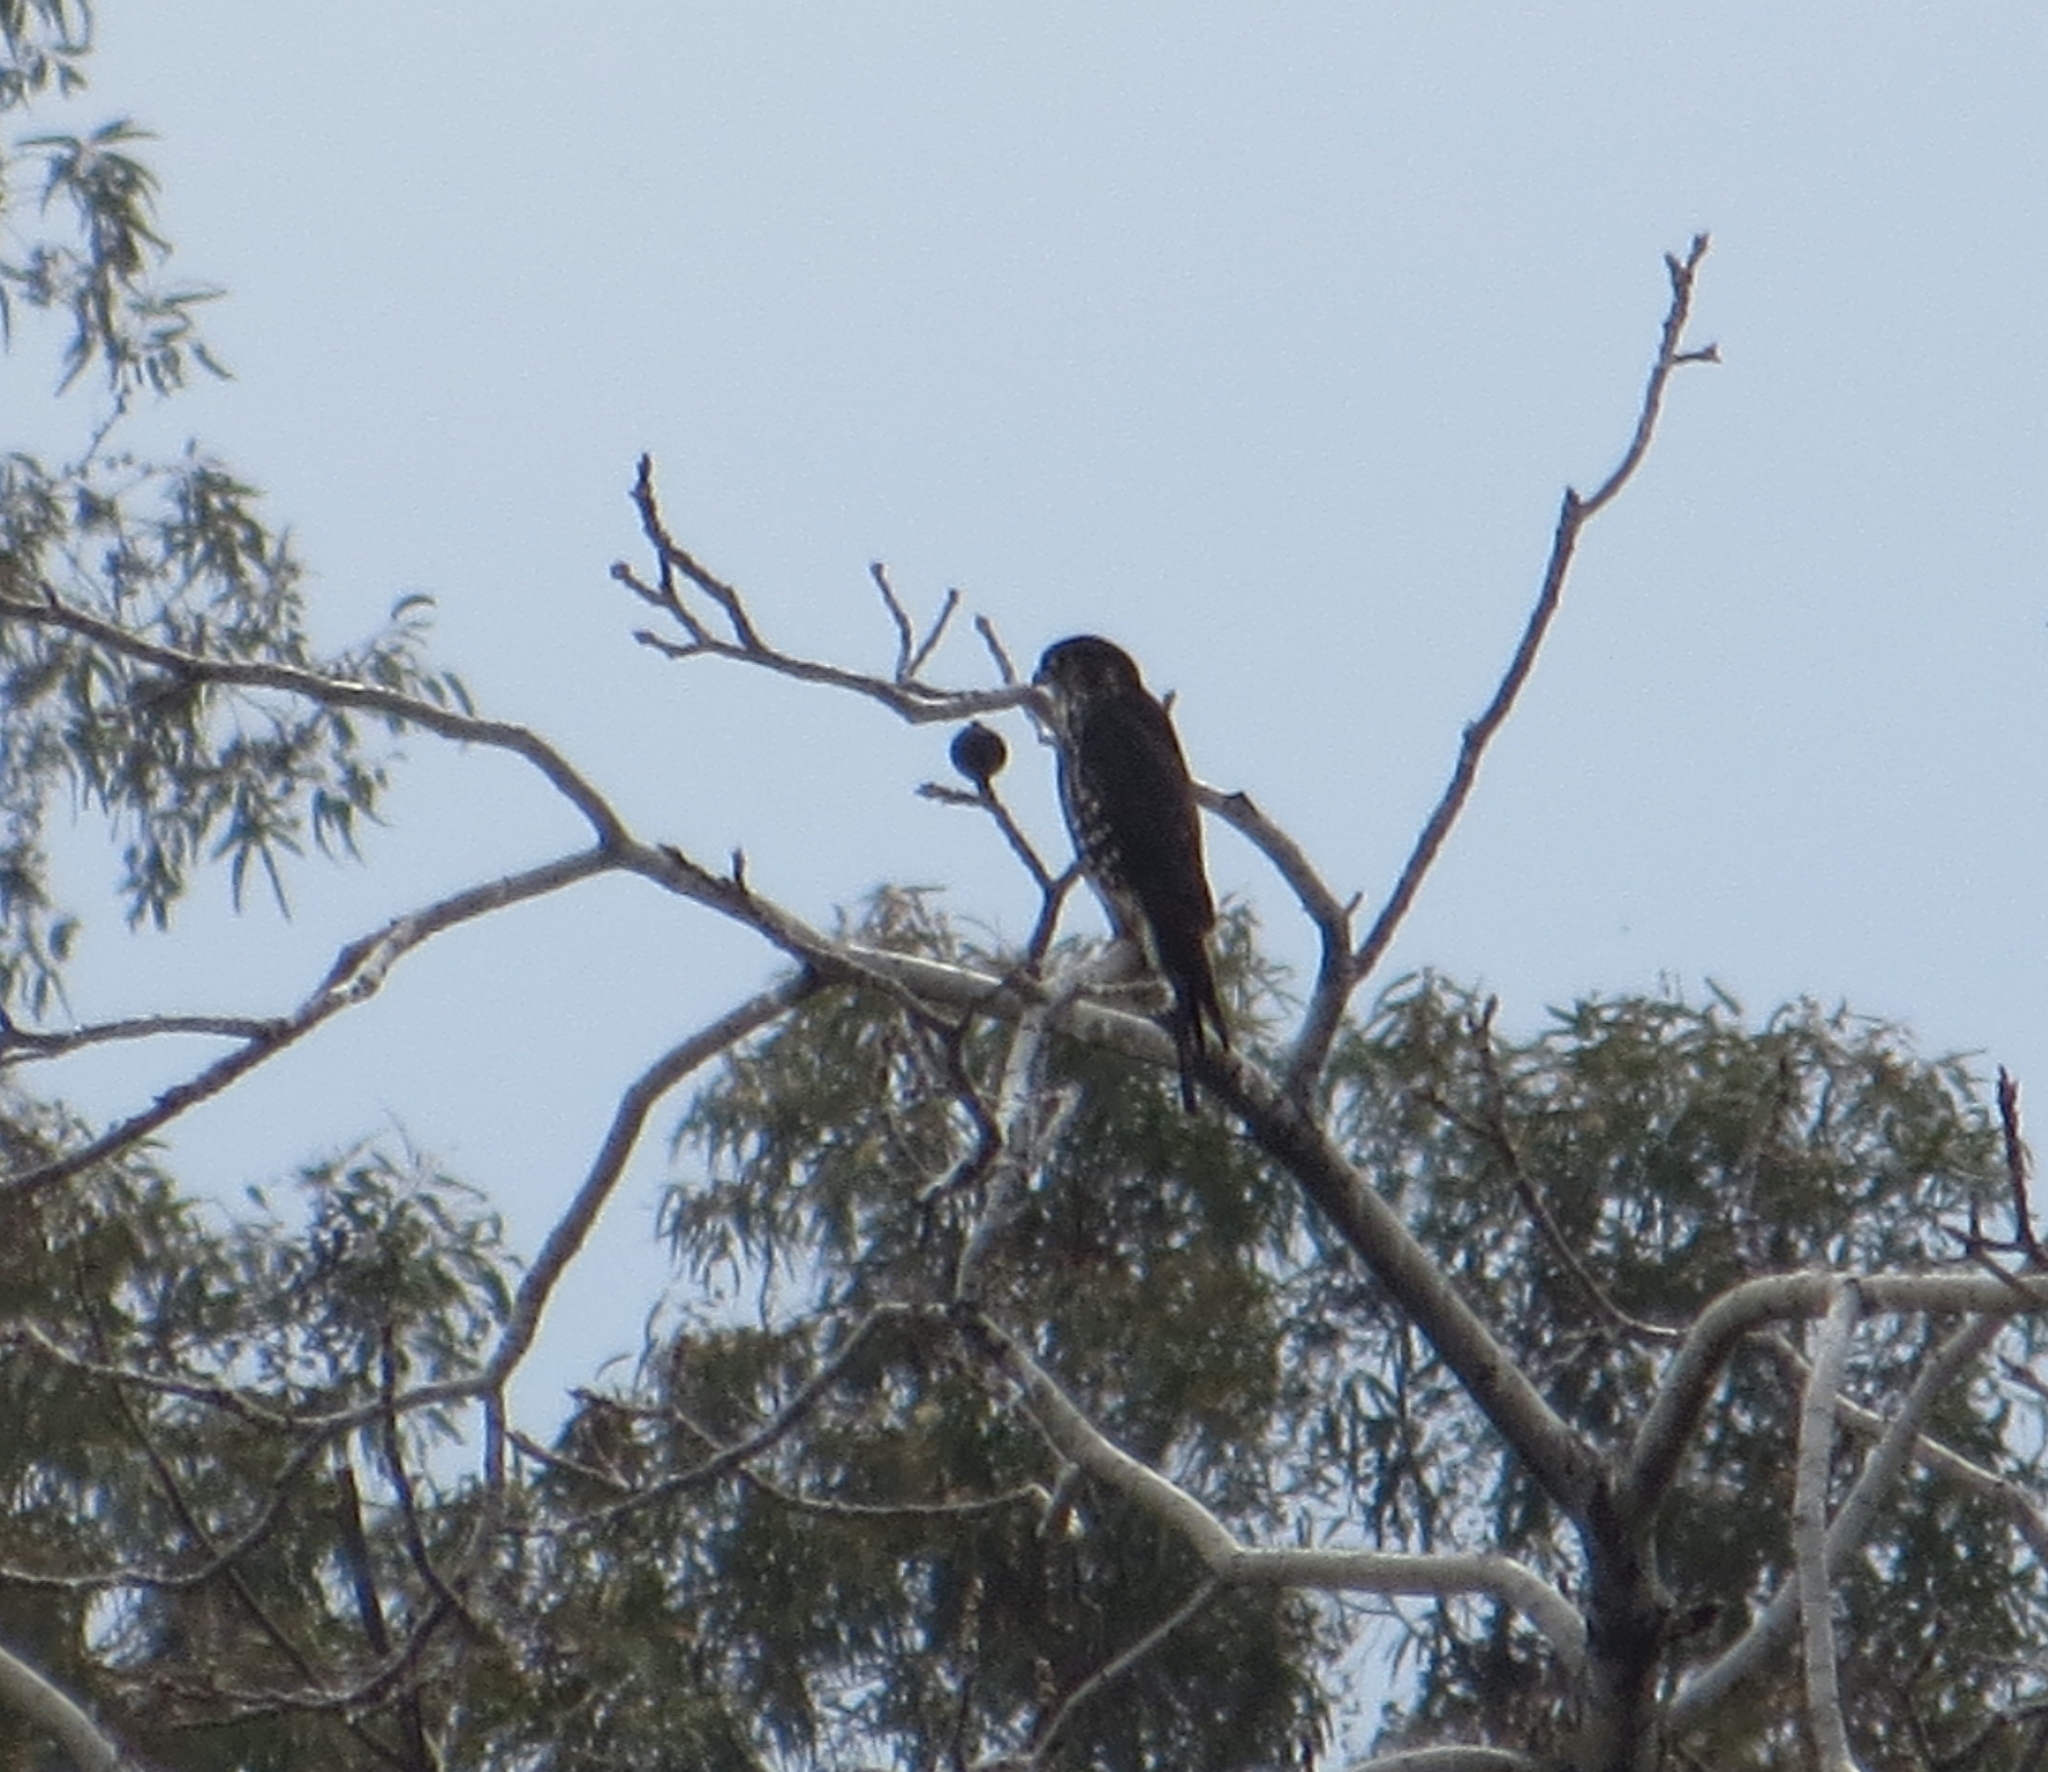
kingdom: Animalia
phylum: Chordata
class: Aves
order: Falconiformes
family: Falconidae
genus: Falco
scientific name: Falco columbarius
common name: Merlin
